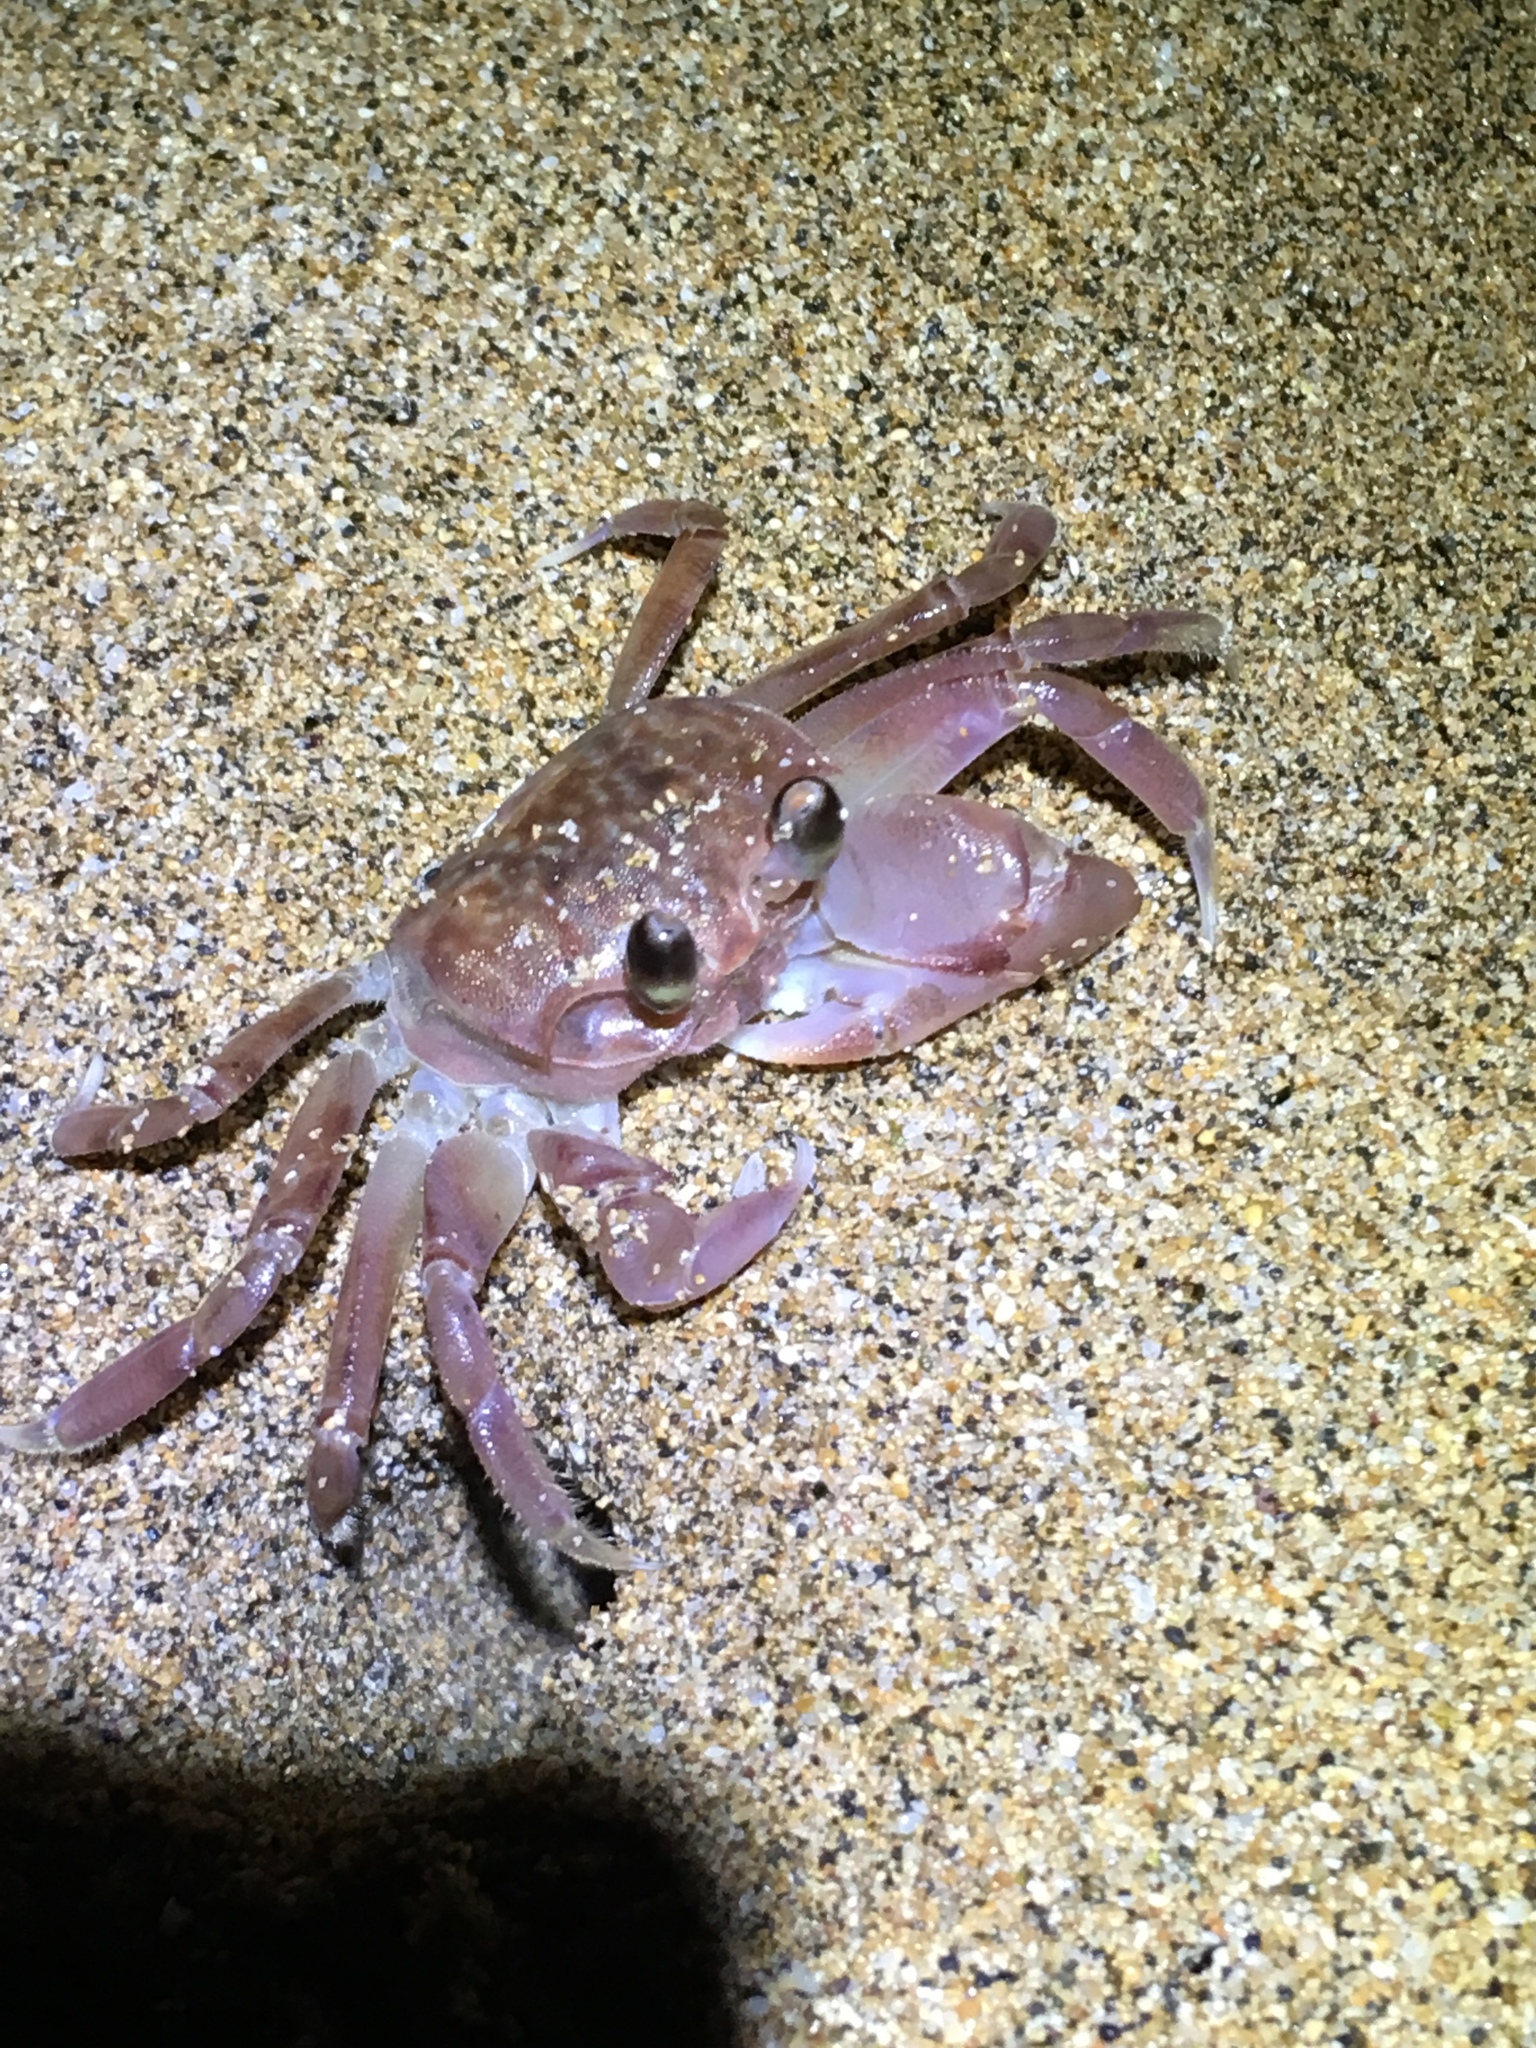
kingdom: Animalia
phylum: Arthropoda
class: Malacostraca
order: Decapoda
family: Ocypodidae
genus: Ocypode
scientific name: Ocypode pallidula
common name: Pallid ghost crab
